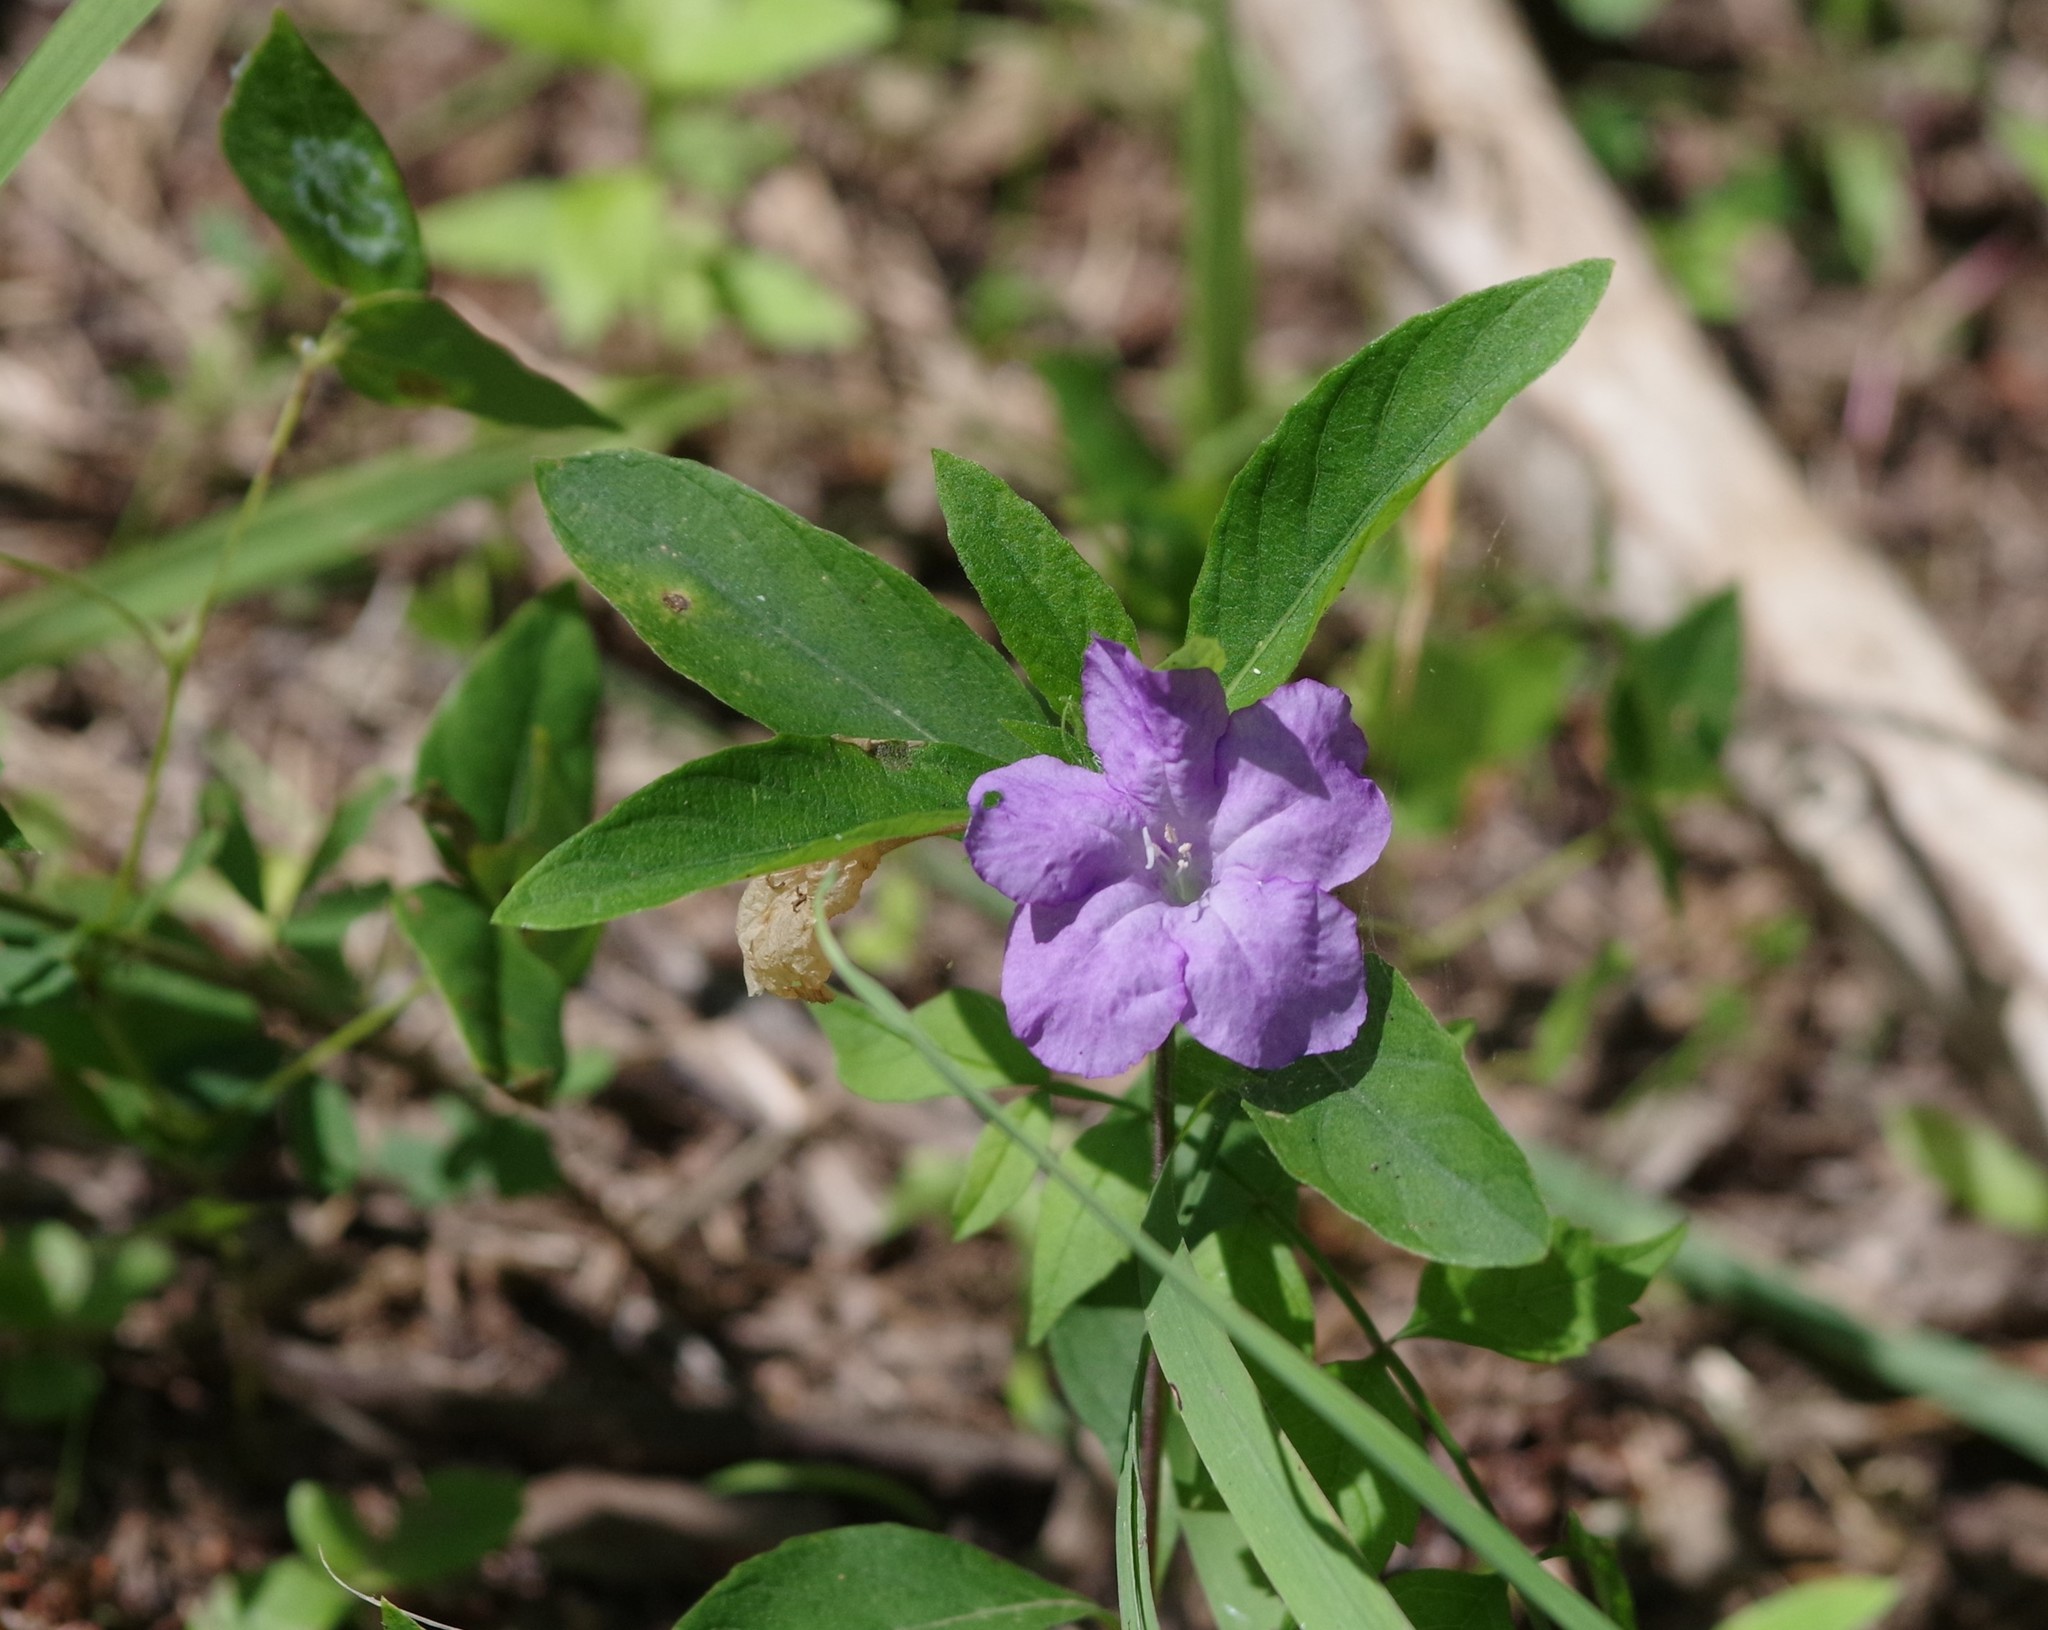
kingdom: Plantae
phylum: Tracheophyta
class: Magnoliopsida
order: Lamiales
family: Acanthaceae
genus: Ruellia
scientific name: Ruellia caroliniensis
